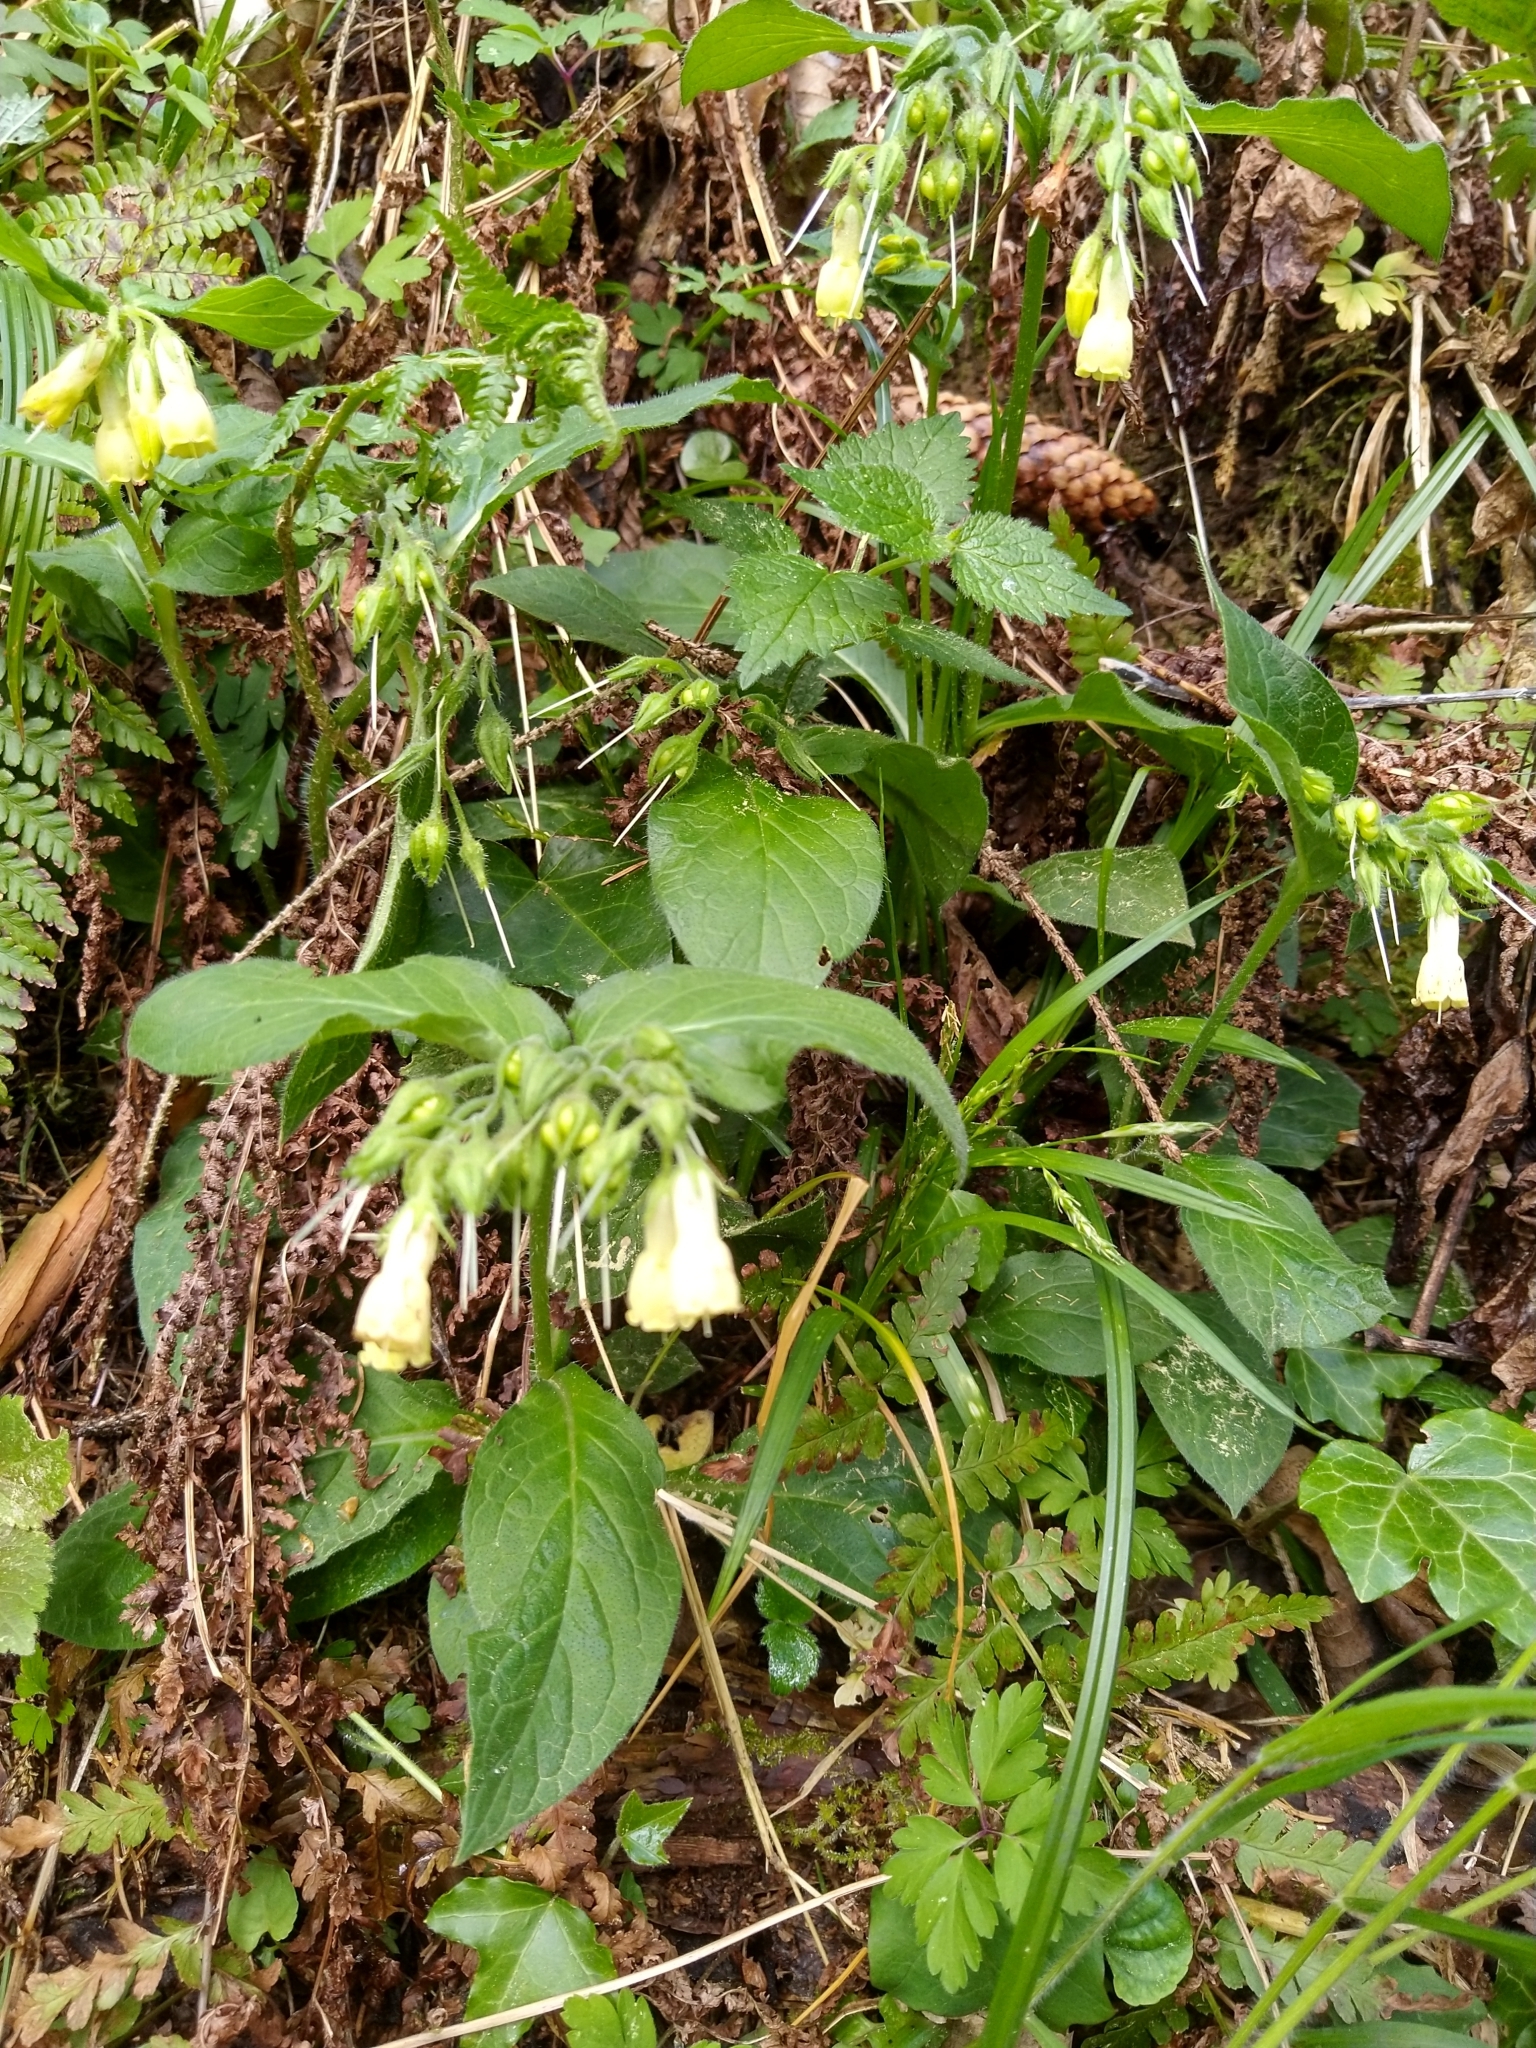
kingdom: Plantae
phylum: Tracheophyta
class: Magnoliopsida
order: Boraginales
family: Boraginaceae
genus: Symphytum
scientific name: Symphytum tuberosum
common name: Tuberous comfrey
